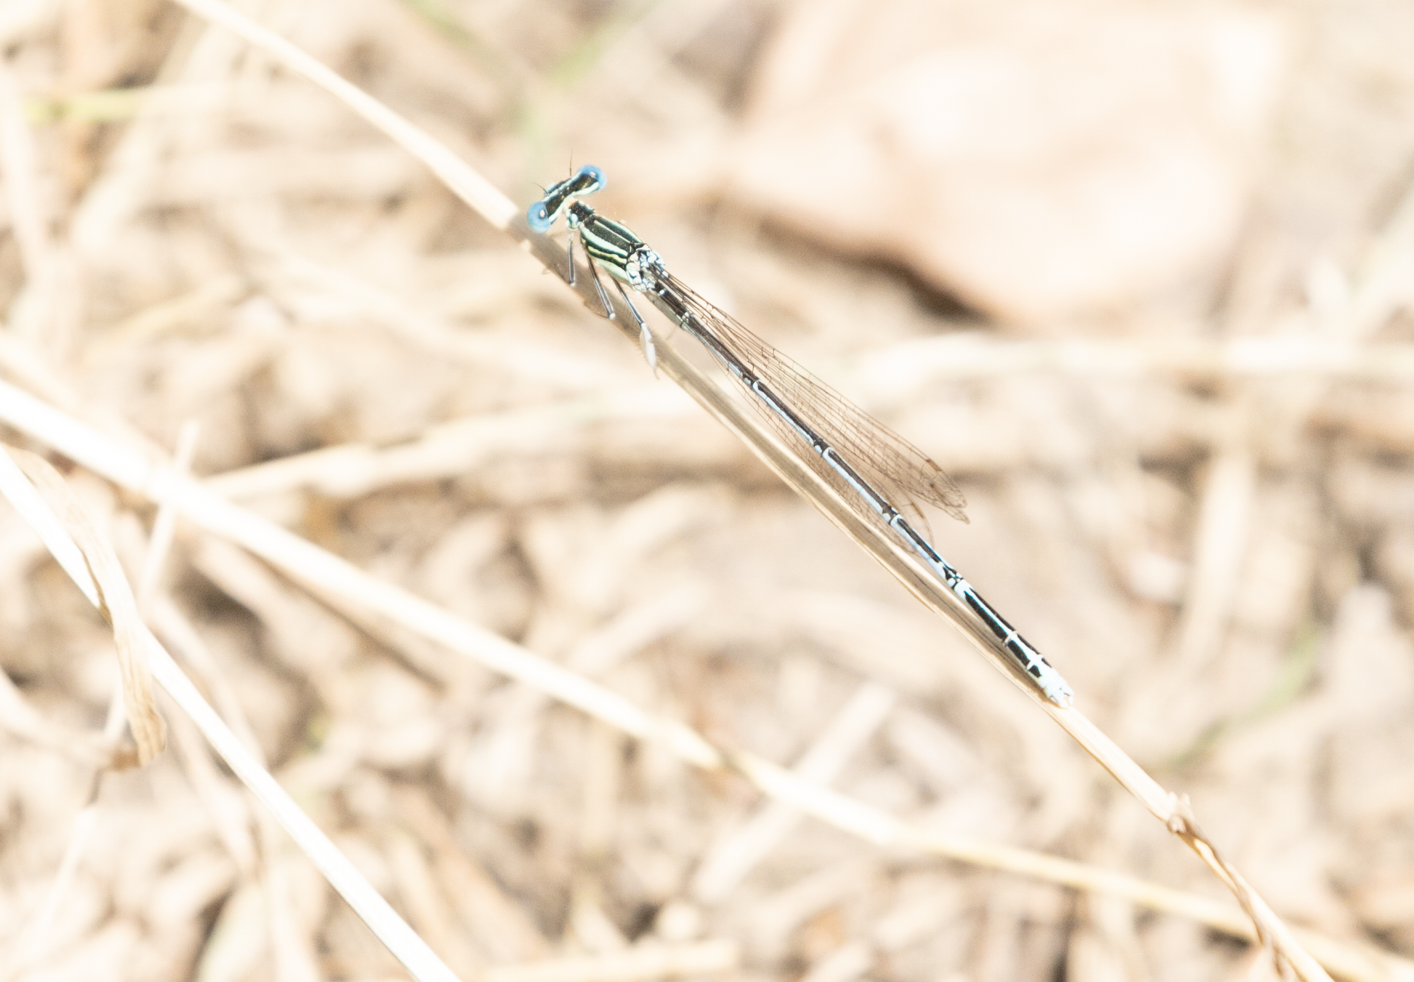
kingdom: Animalia
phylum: Arthropoda
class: Insecta
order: Odonata
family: Platycnemididae
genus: Platycnemis
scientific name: Platycnemis pennipes
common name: White-legged damselfly
